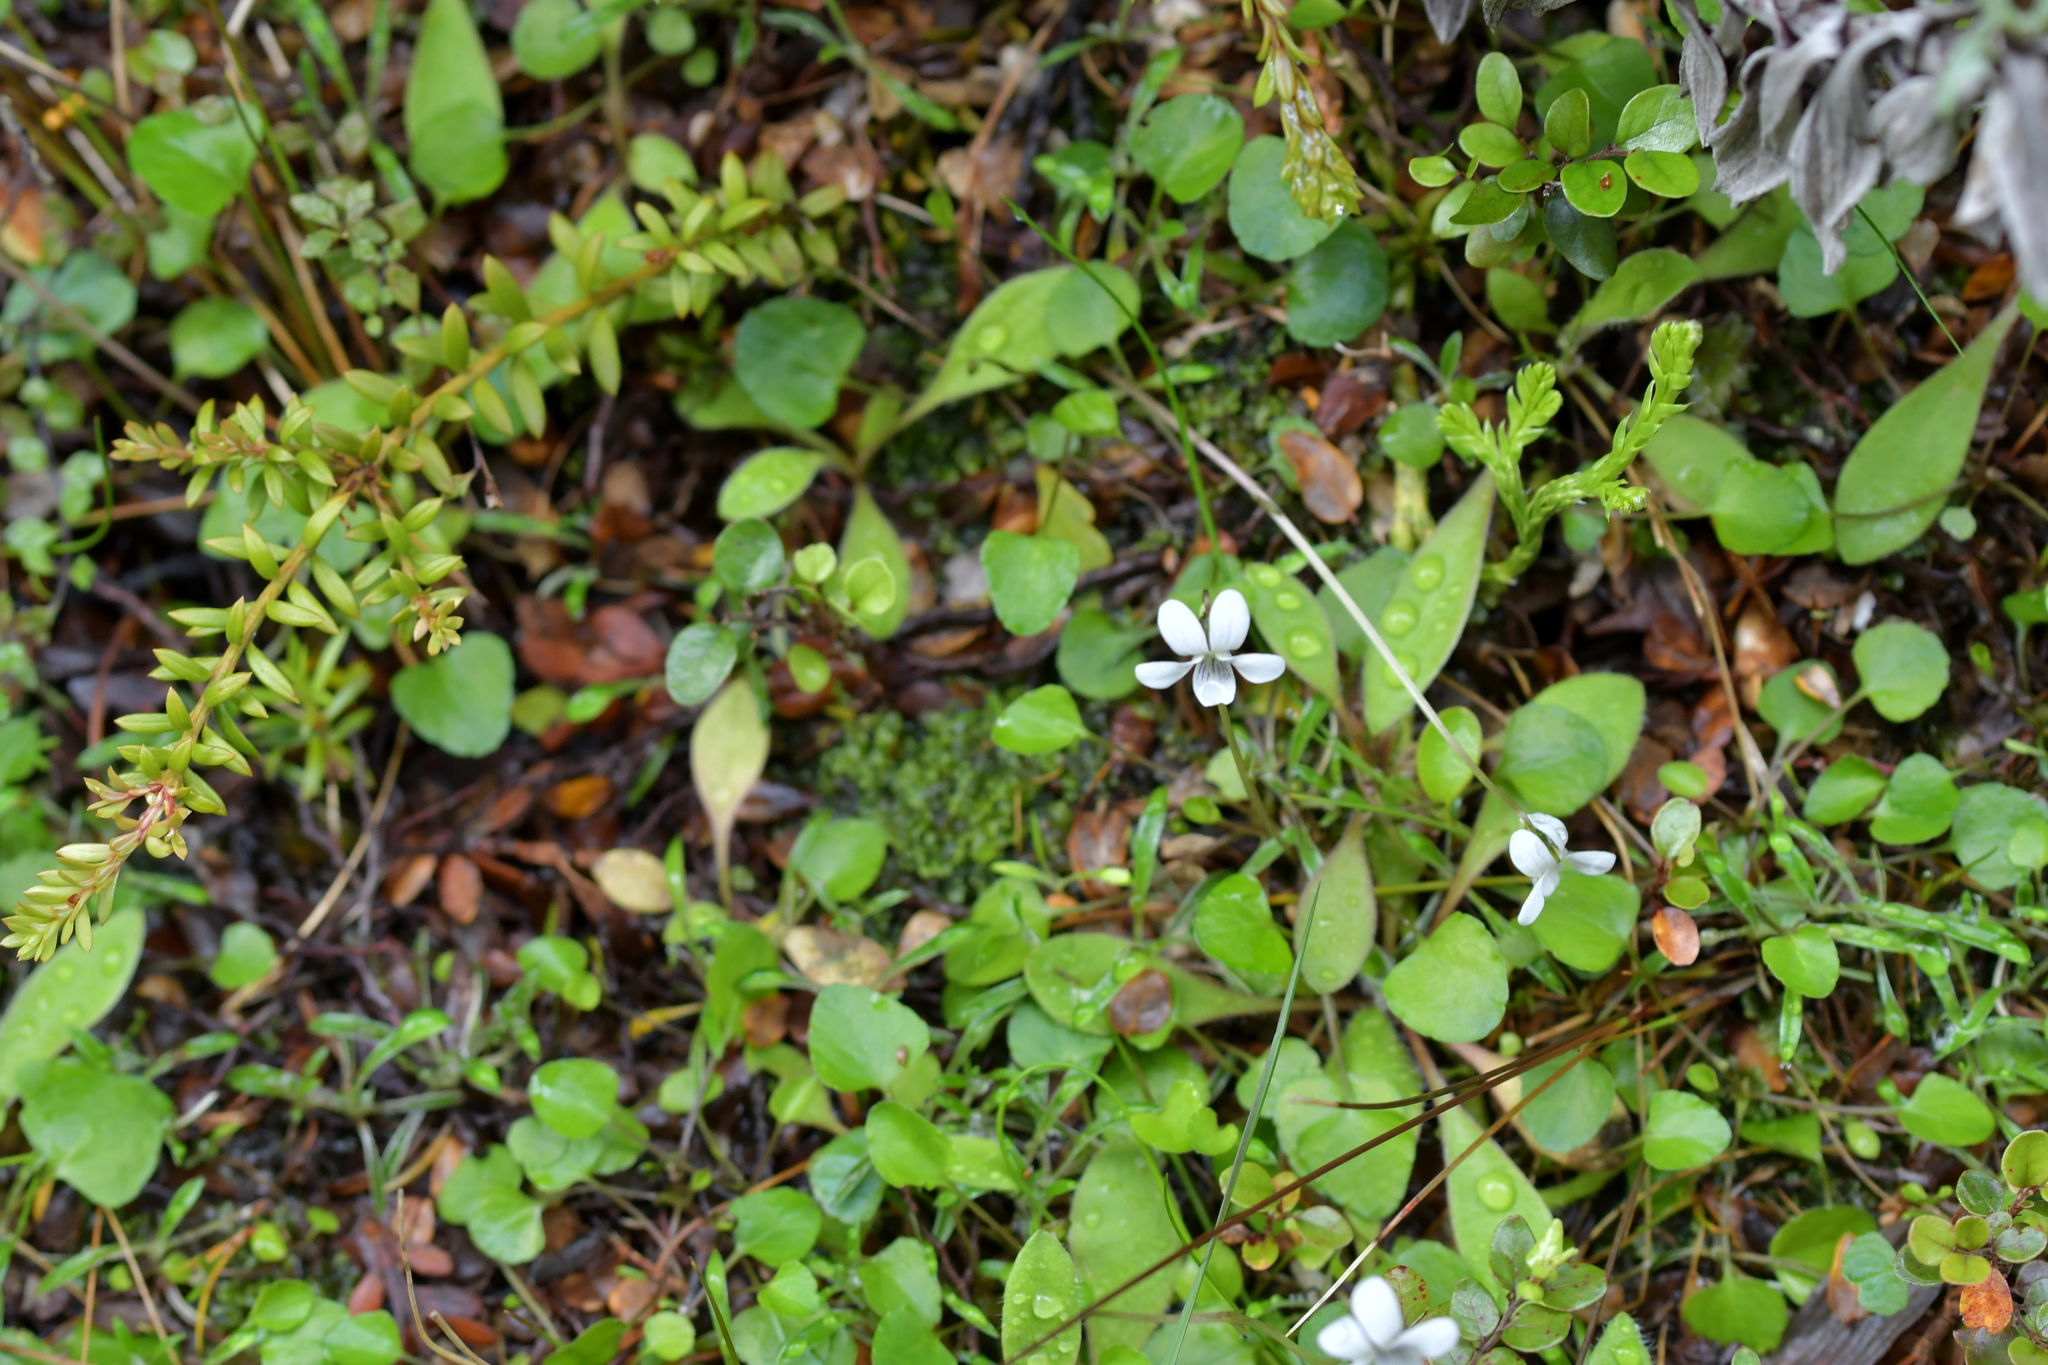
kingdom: Plantae
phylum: Tracheophyta
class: Magnoliopsida
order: Malpighiales
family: Violaceae
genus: Viola
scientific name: Viola cunninghamii
